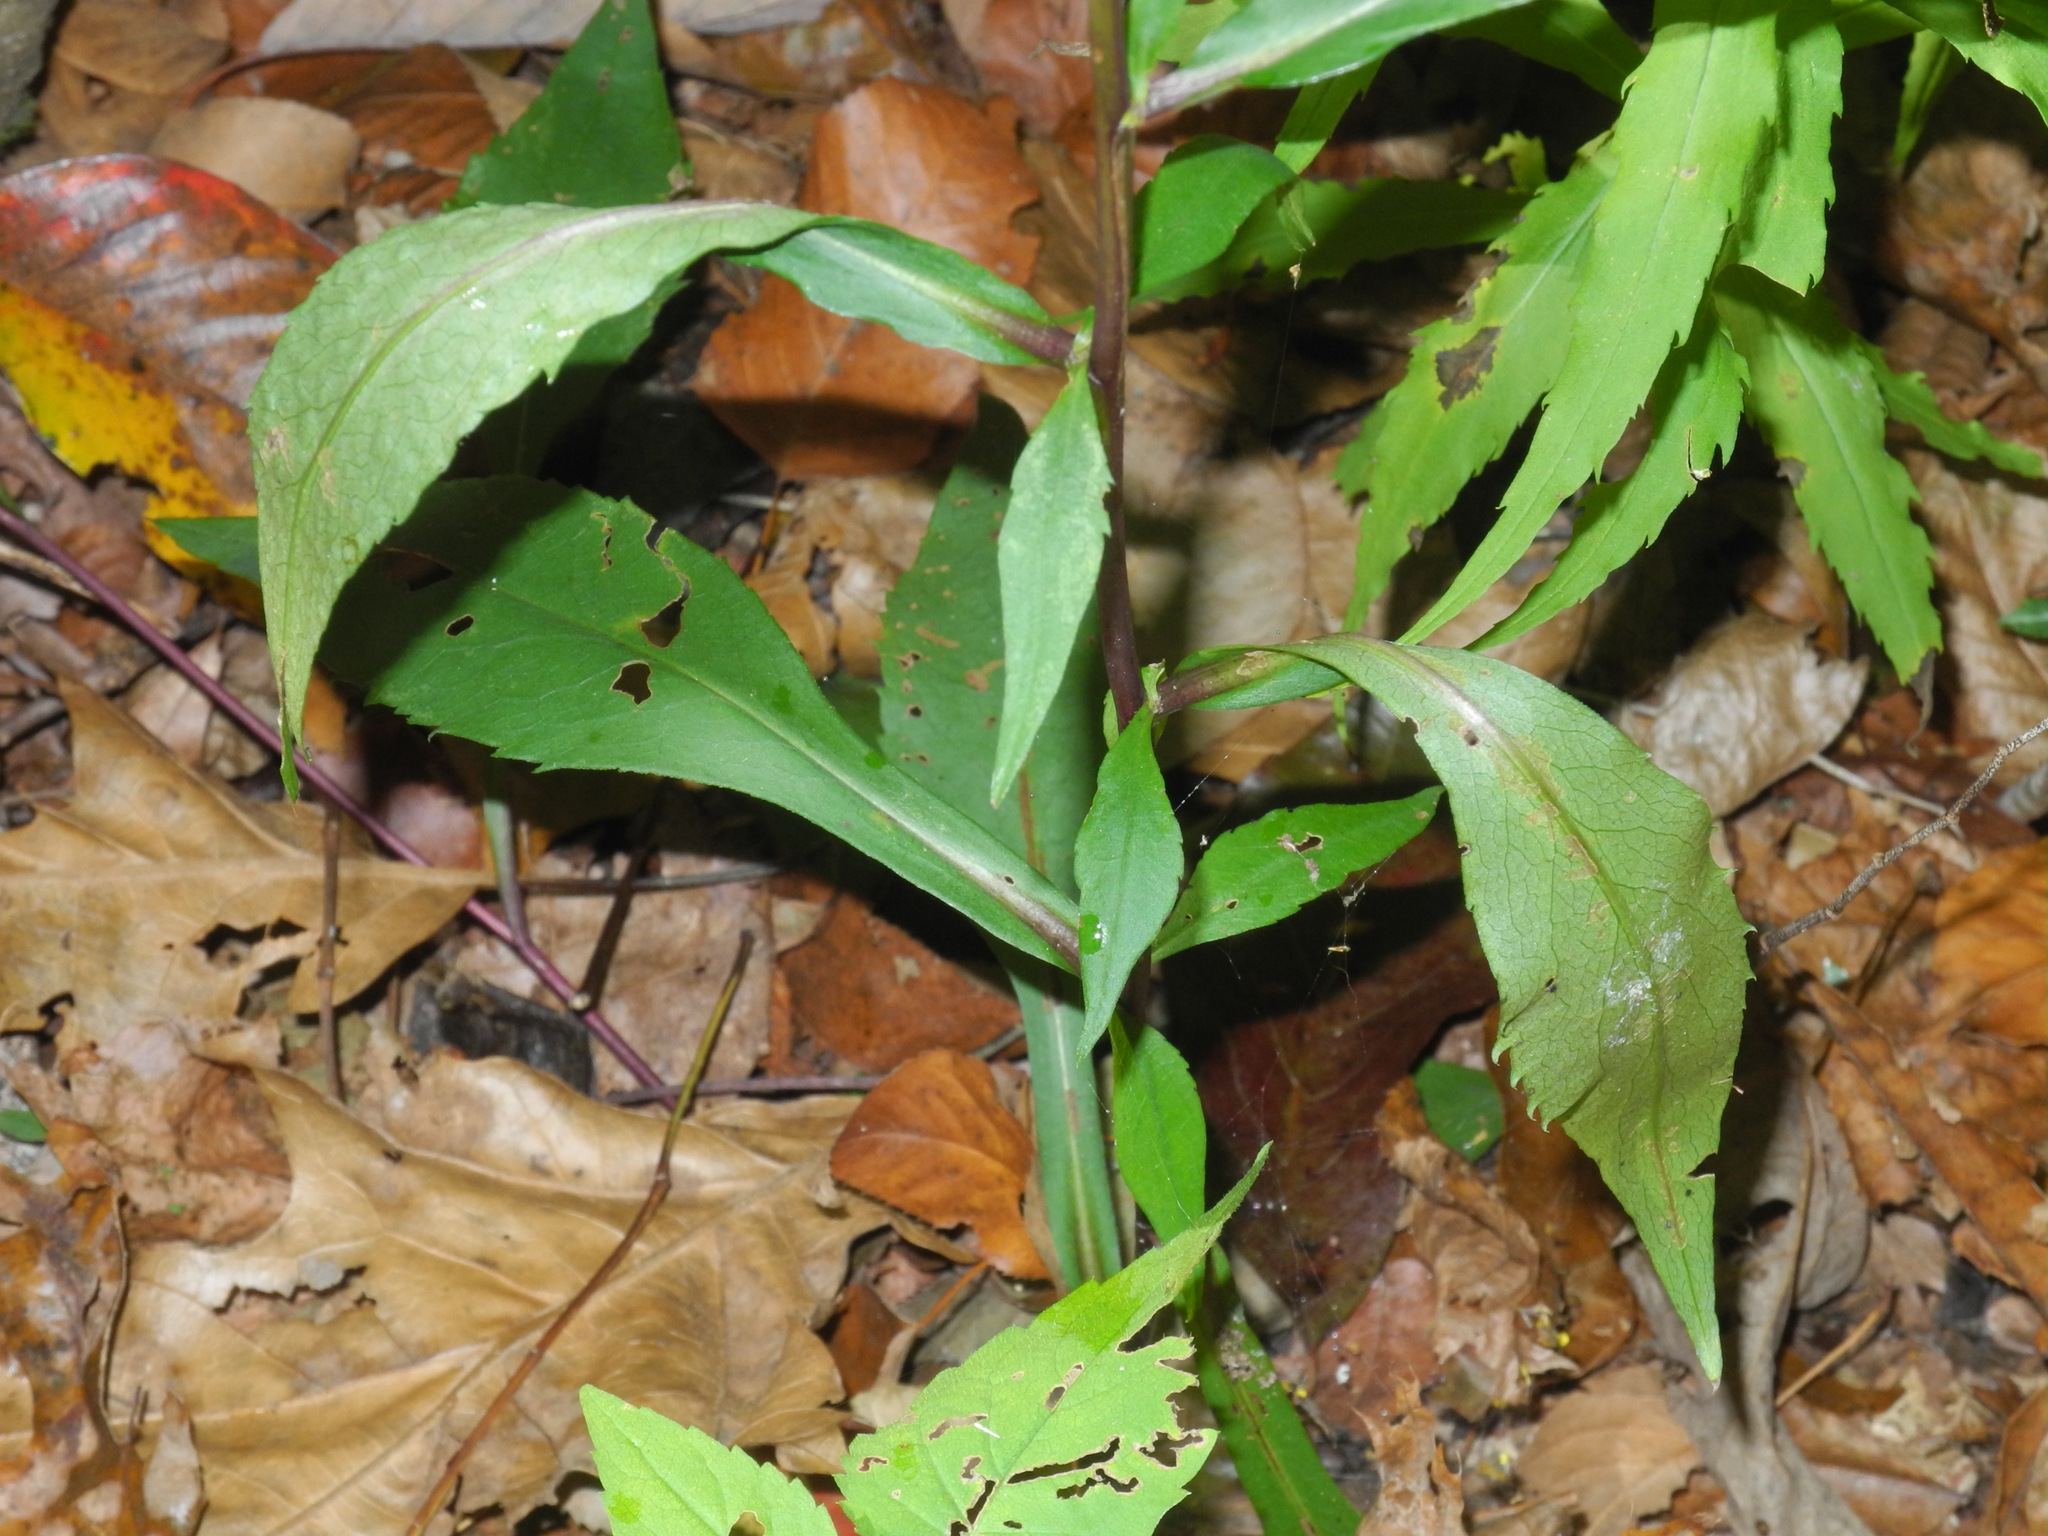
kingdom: Plantae
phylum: Tracheophyta
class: Magnoliopsida
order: Asterales
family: Asteraceae
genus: Symphyotrichum
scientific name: Symphyotrichum retroflexum
